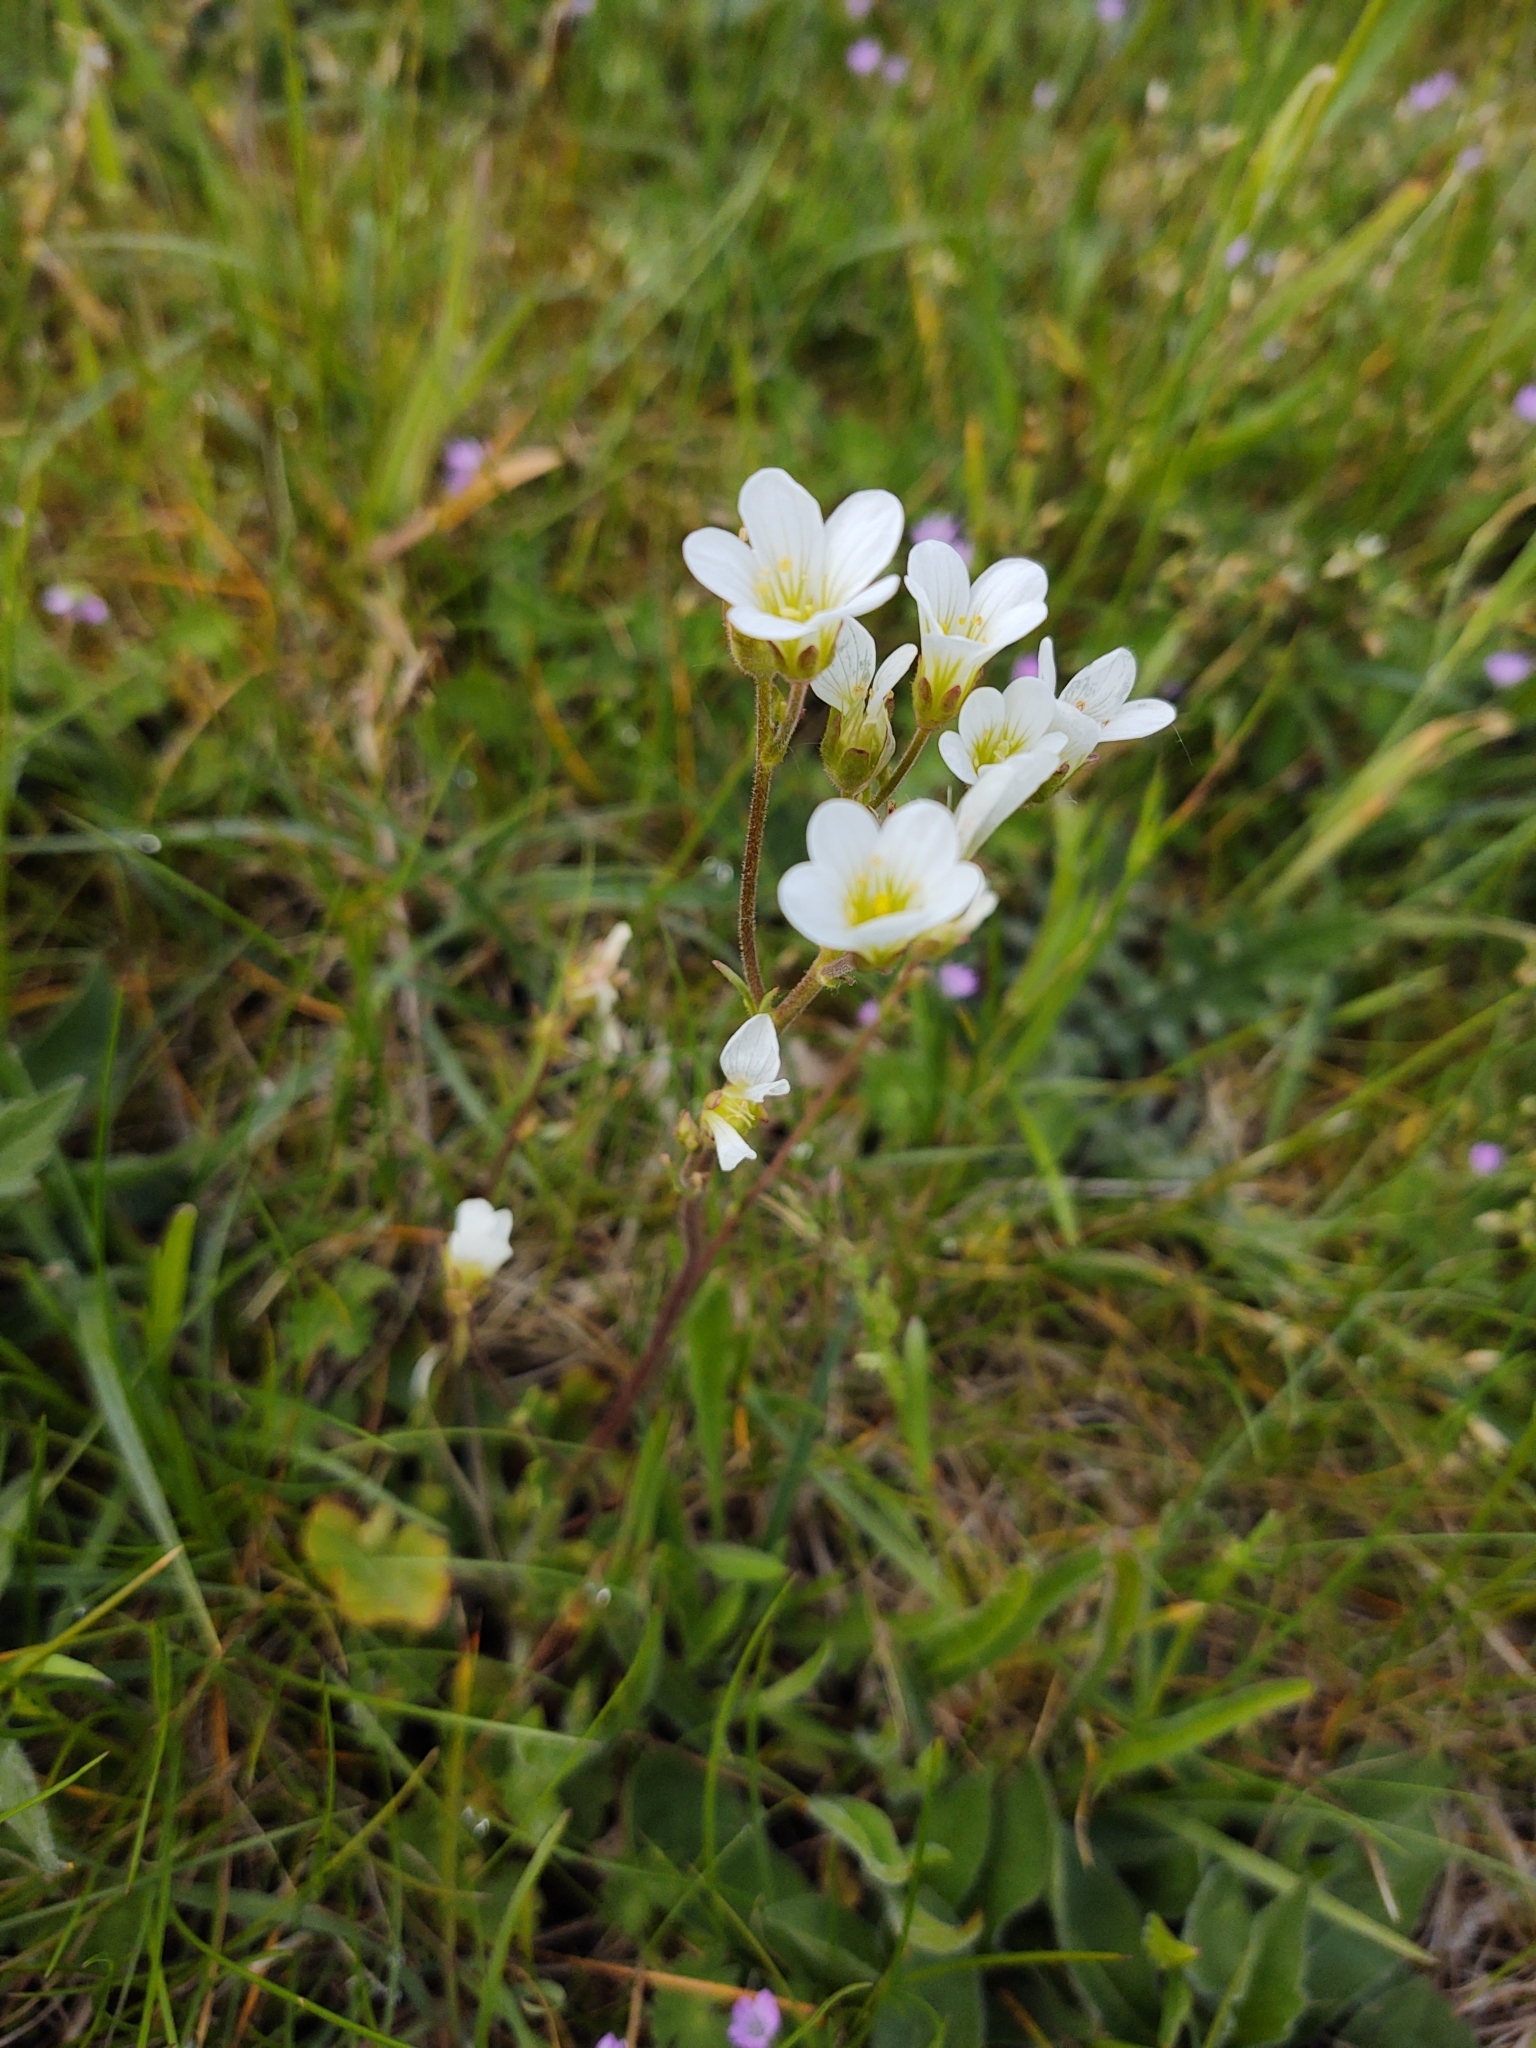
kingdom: Plantae
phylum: Tracheophyta
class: Magnoliopsida
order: Saxifragales
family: Saxifragaceae
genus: Saxifraga
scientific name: Saxifraga granulata
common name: Meadow saxifrage
